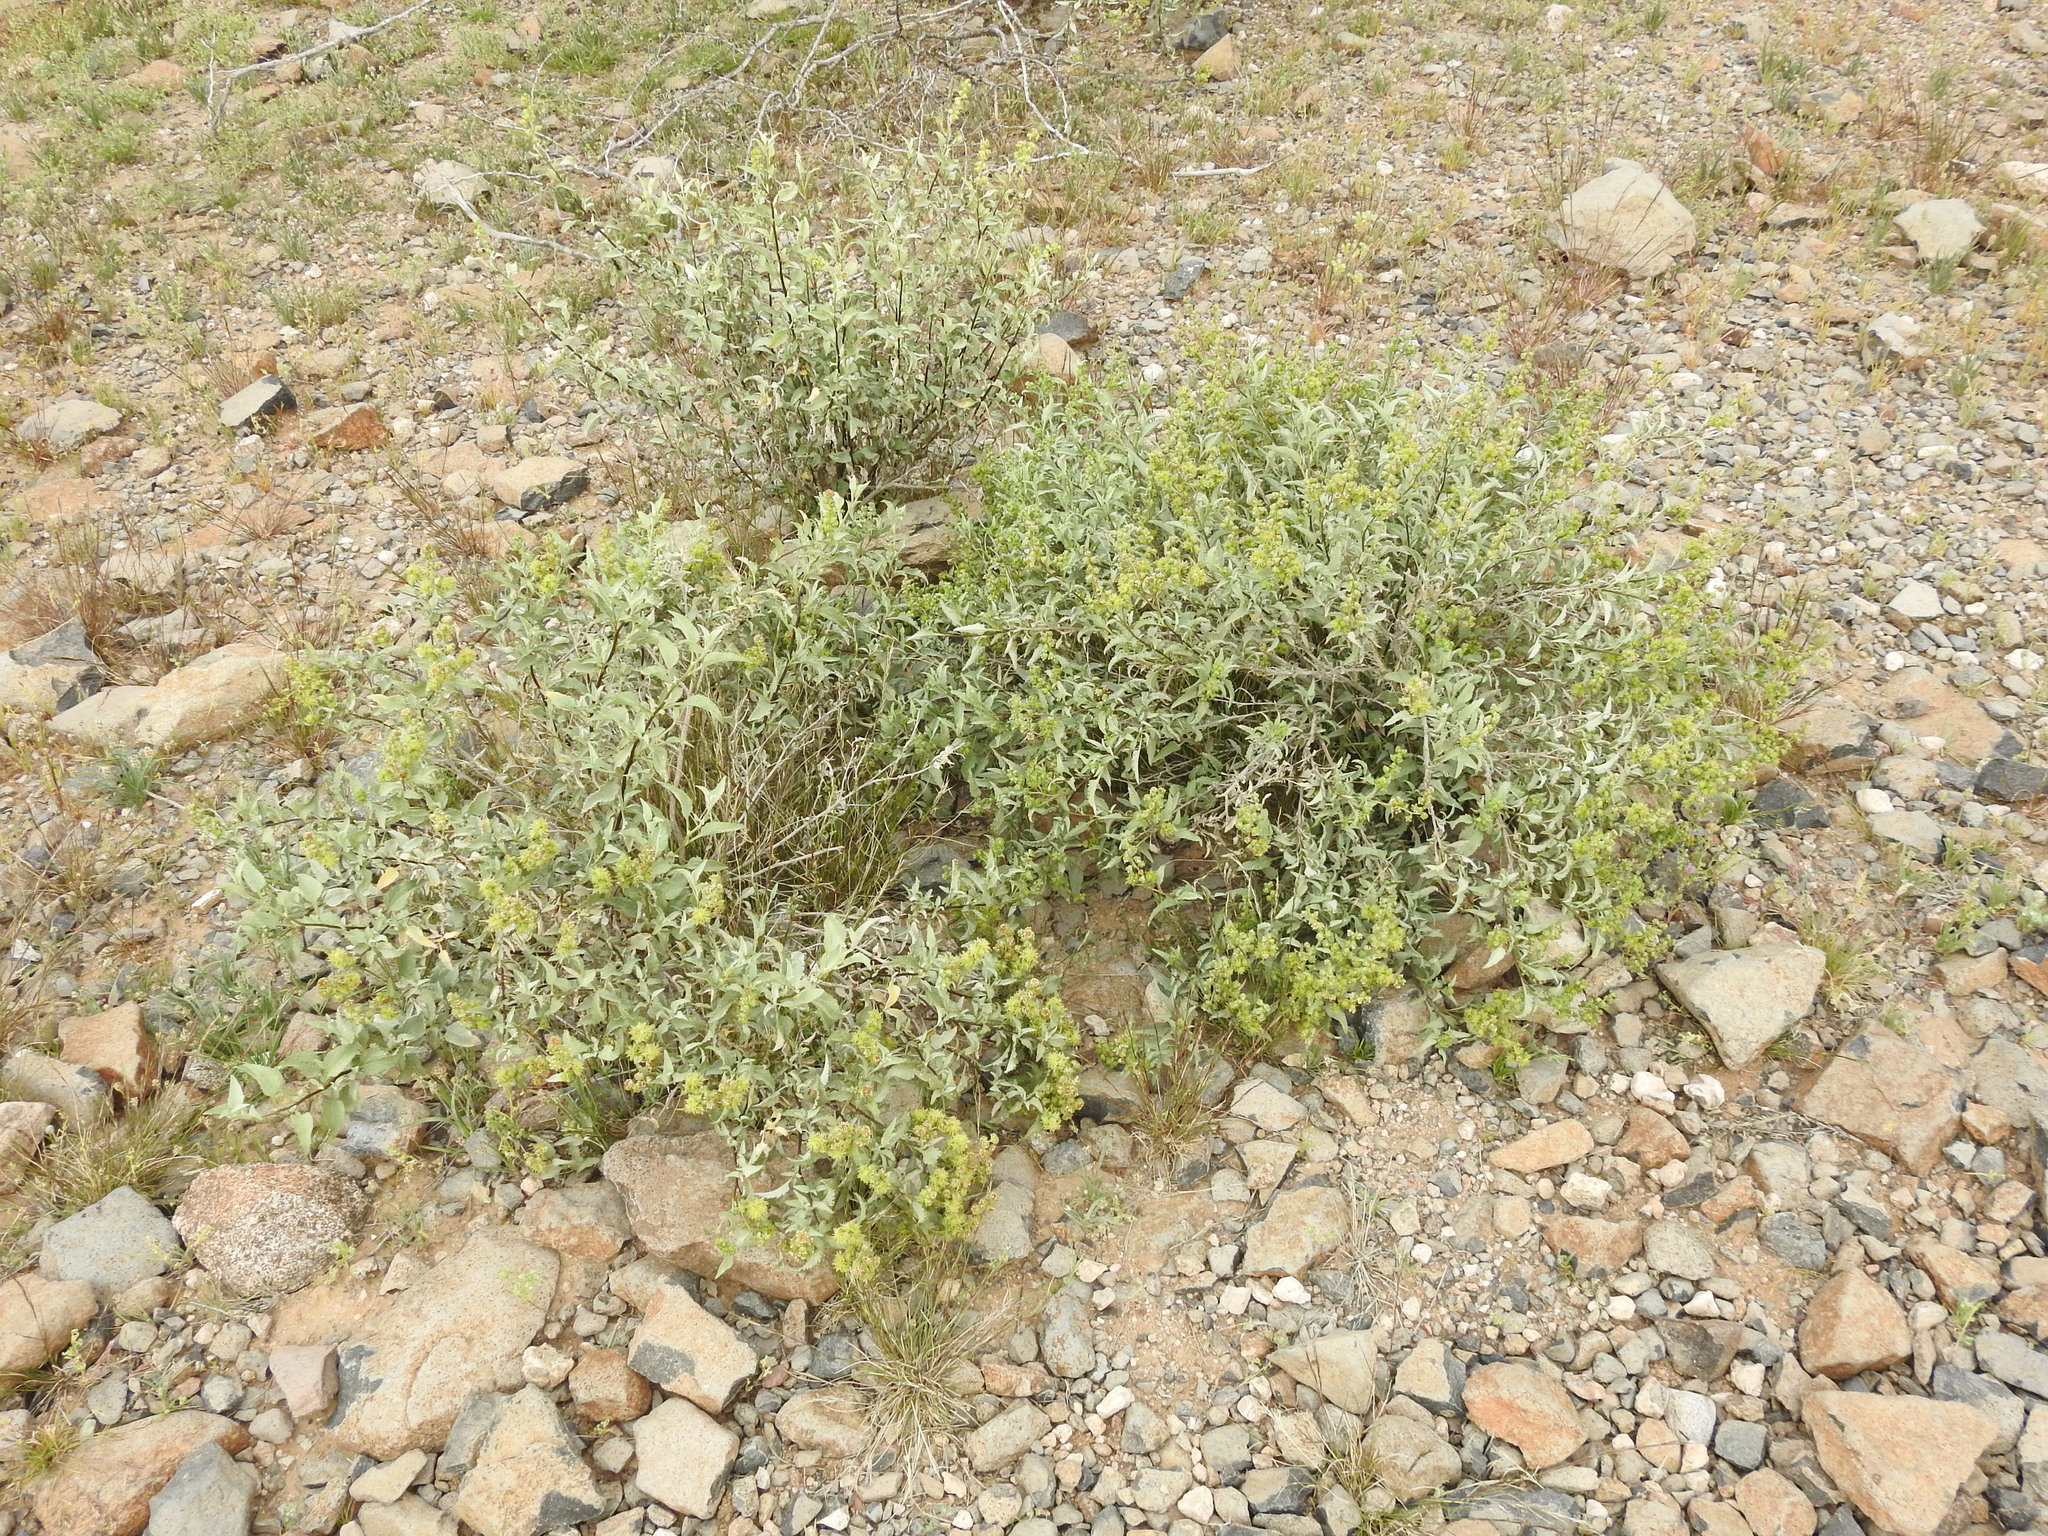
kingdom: Plantae
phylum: Tracheophyta
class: Magnoliopsida
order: Asterales
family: Asteraceae
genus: Ambrosia
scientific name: Ambrosia deltoidea
